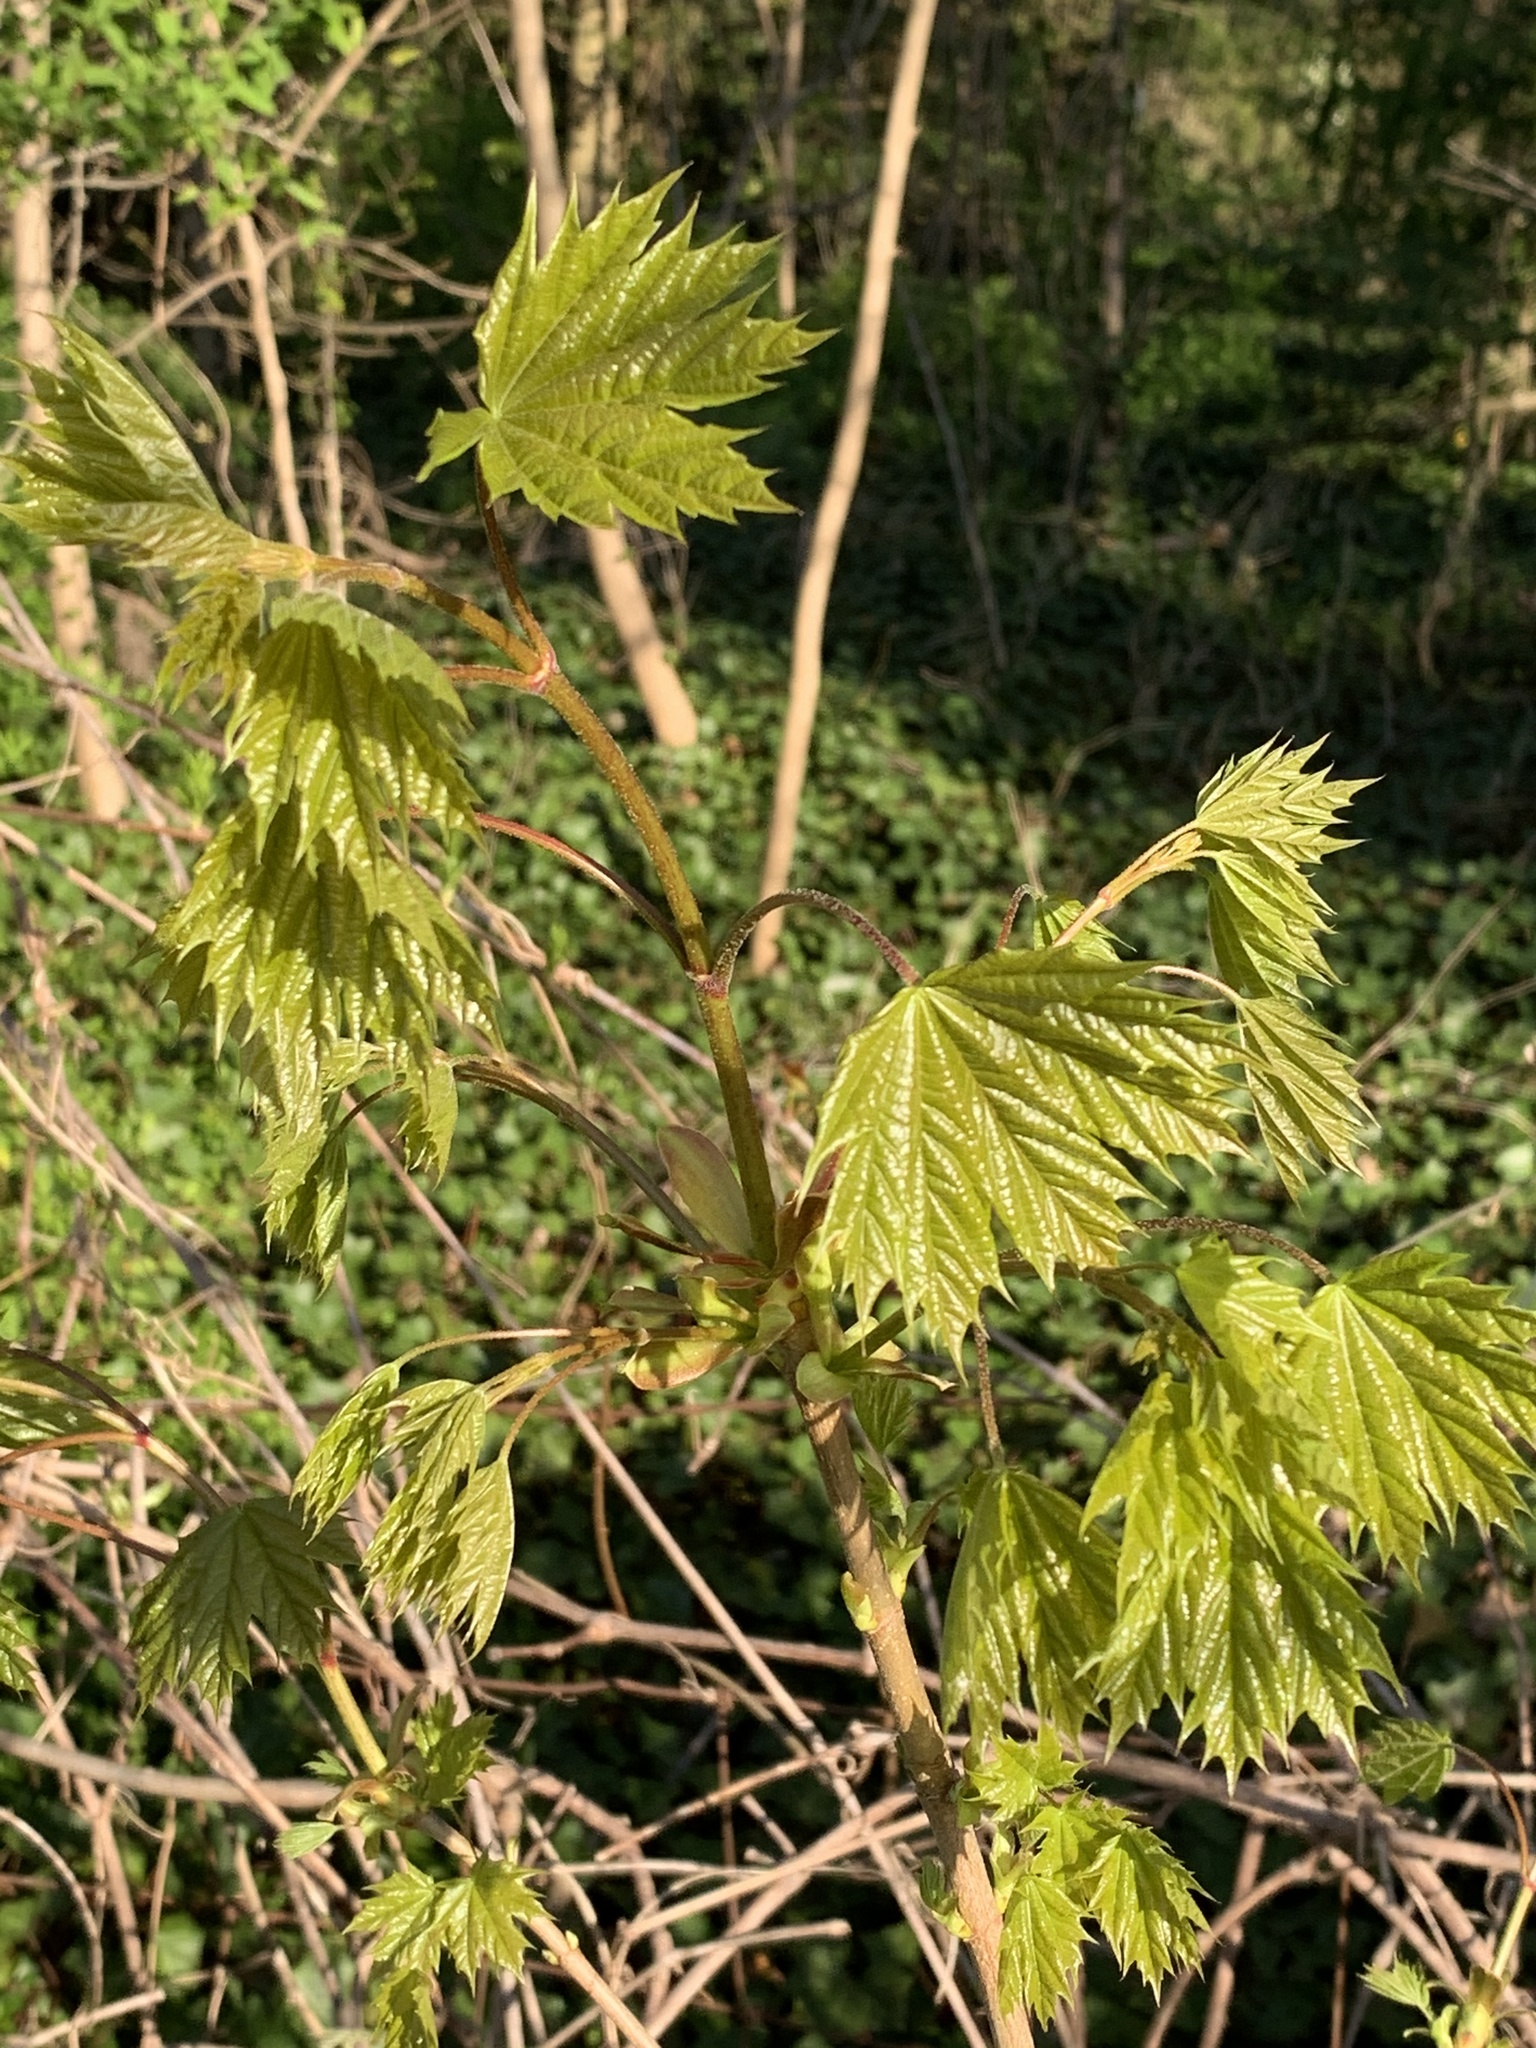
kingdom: Plantae
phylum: Tracheophyta
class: Magnoliopsida
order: Sapindales
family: Sapindaceae
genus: Acer
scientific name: Acer platanoides
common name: Norway maple
